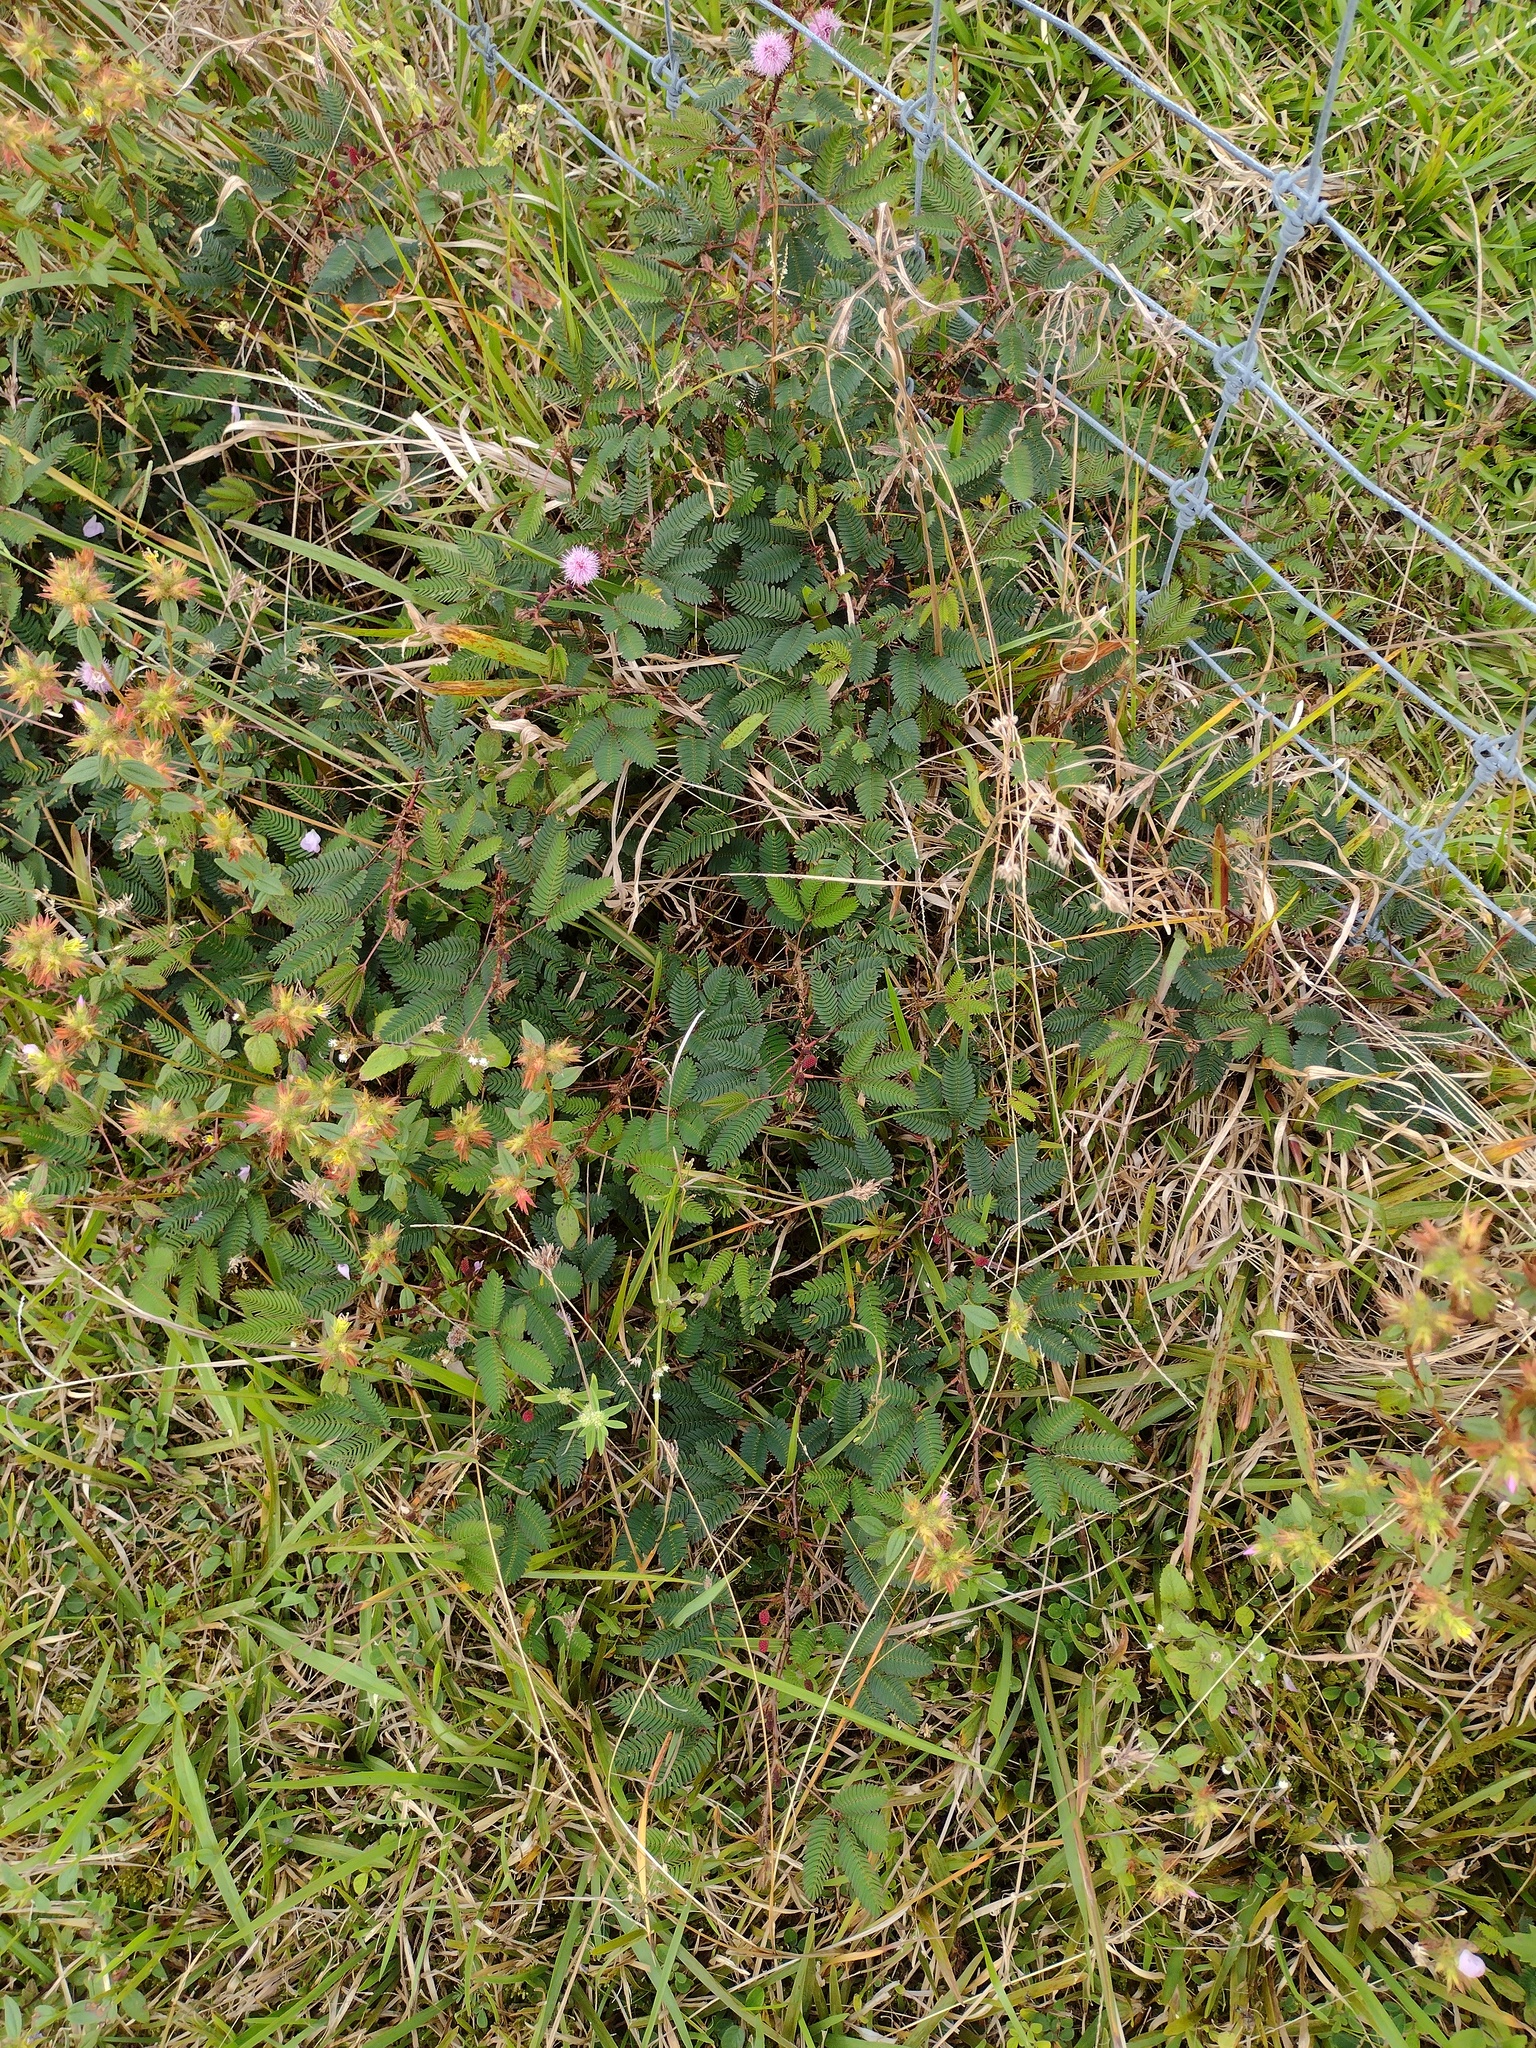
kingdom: Plantae
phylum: Tracheophyta
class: Magnoliopsida
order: Fabales
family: Fabaceae
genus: Mimosa
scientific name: Mimosa pudica
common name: Sensitive plant
